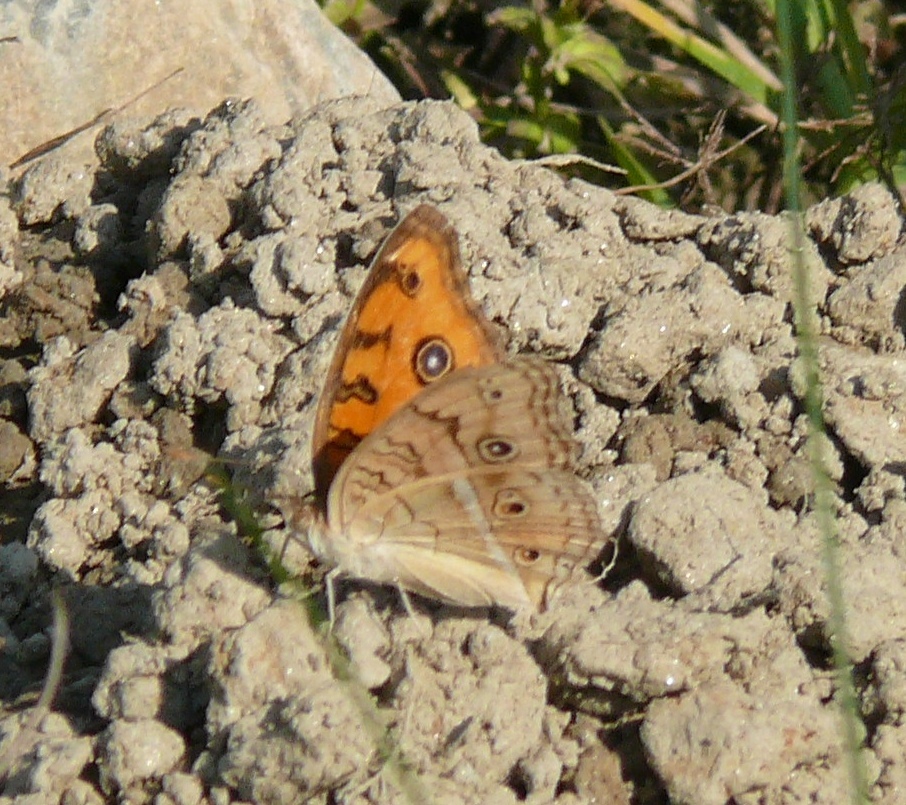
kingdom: Animalia
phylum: Arthropoda
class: Insecta
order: Lepidoptera
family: Nymphalidae
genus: Junonia
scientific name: Junonia almana
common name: Peacock pansy
